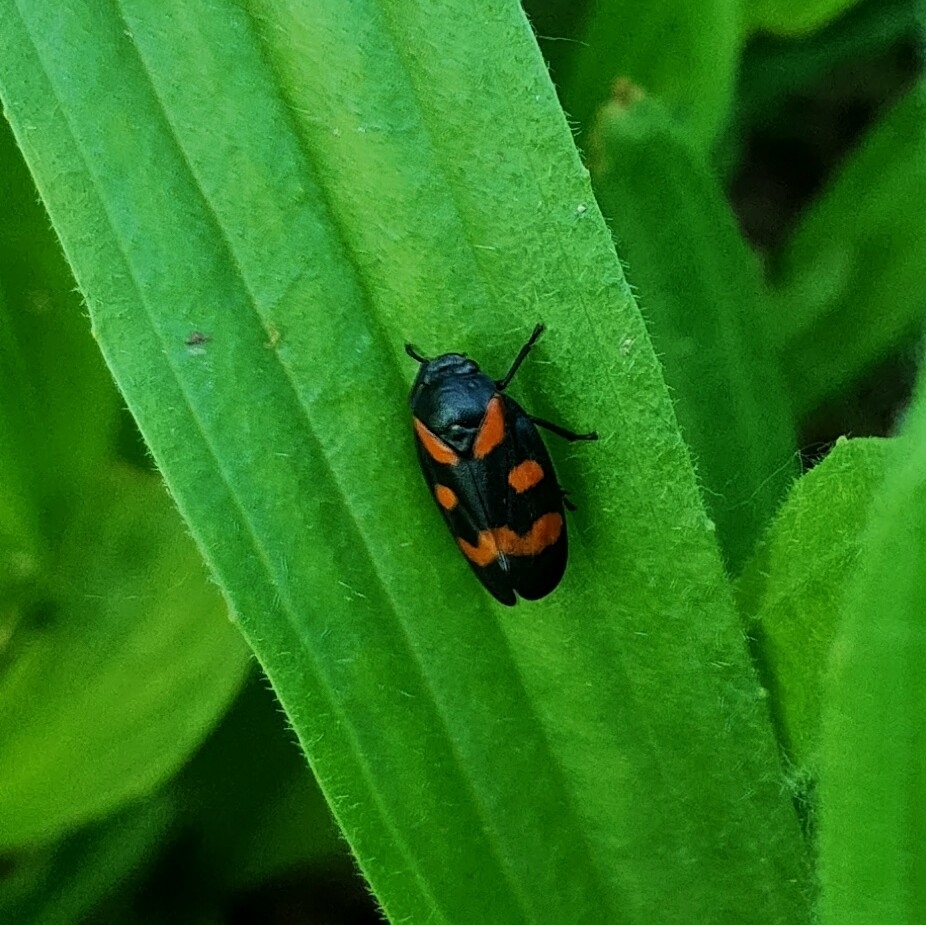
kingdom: Animalia
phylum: Arthropoda
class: Insecta
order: Hemiptera
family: Cercopidae
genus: Cercopis
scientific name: Cercopis sanguinolenta
